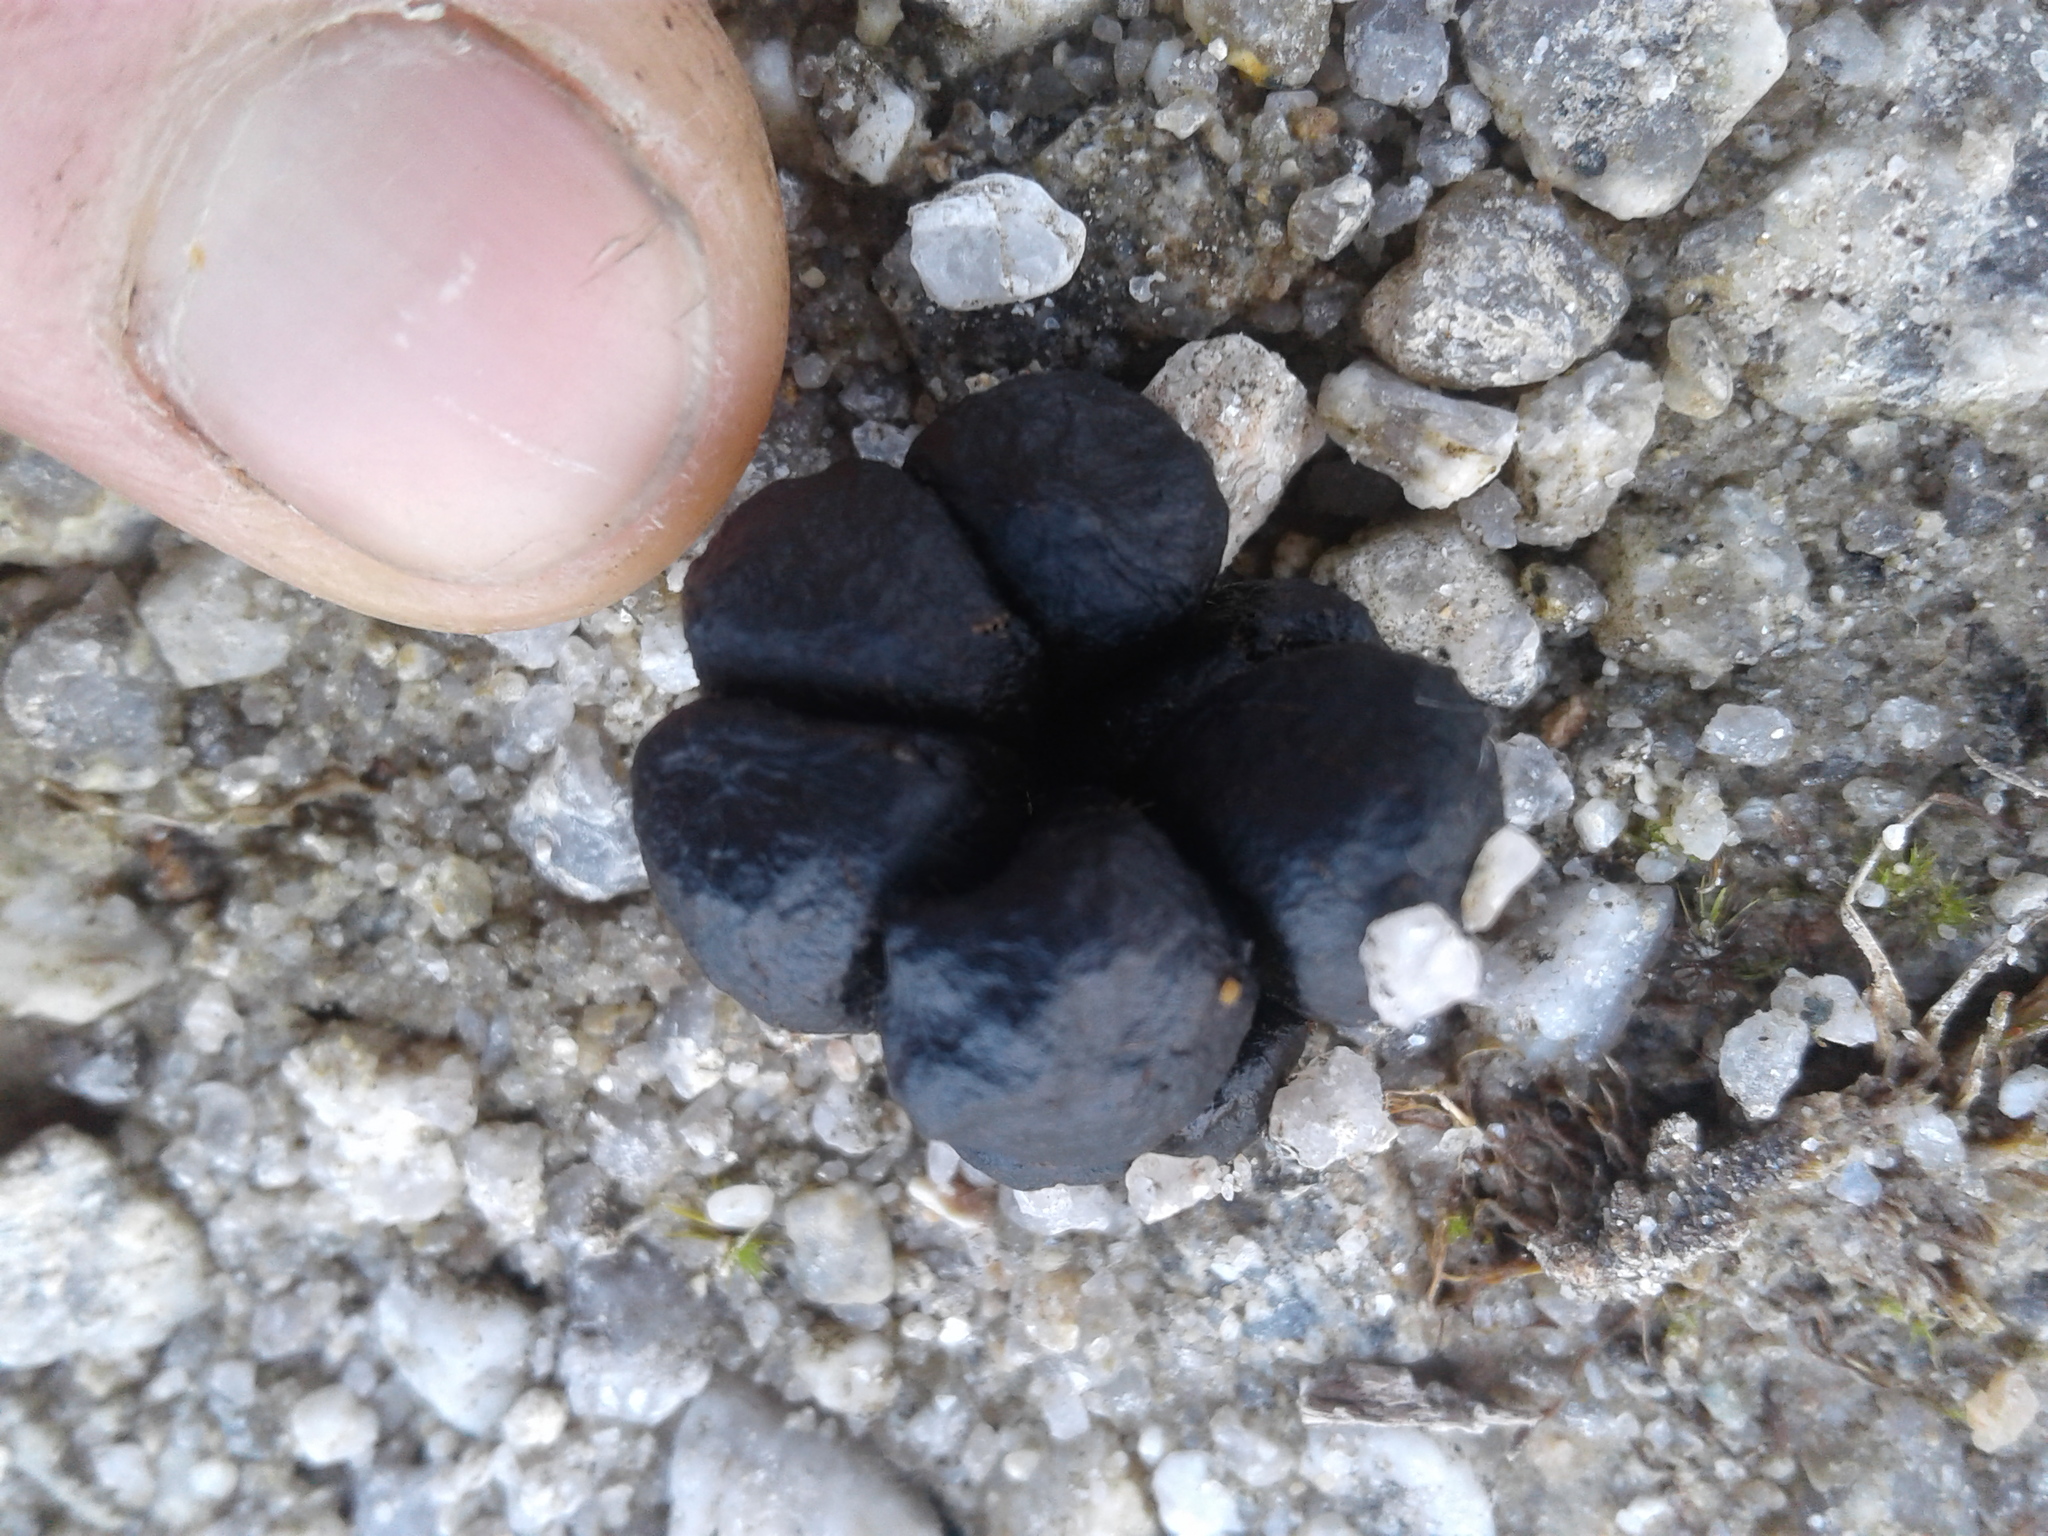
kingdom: Animalia
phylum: Chordata
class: Mammalia
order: Artiodactyla
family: Bovidae
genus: Capra
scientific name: Capra hircus
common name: Domestic goat
